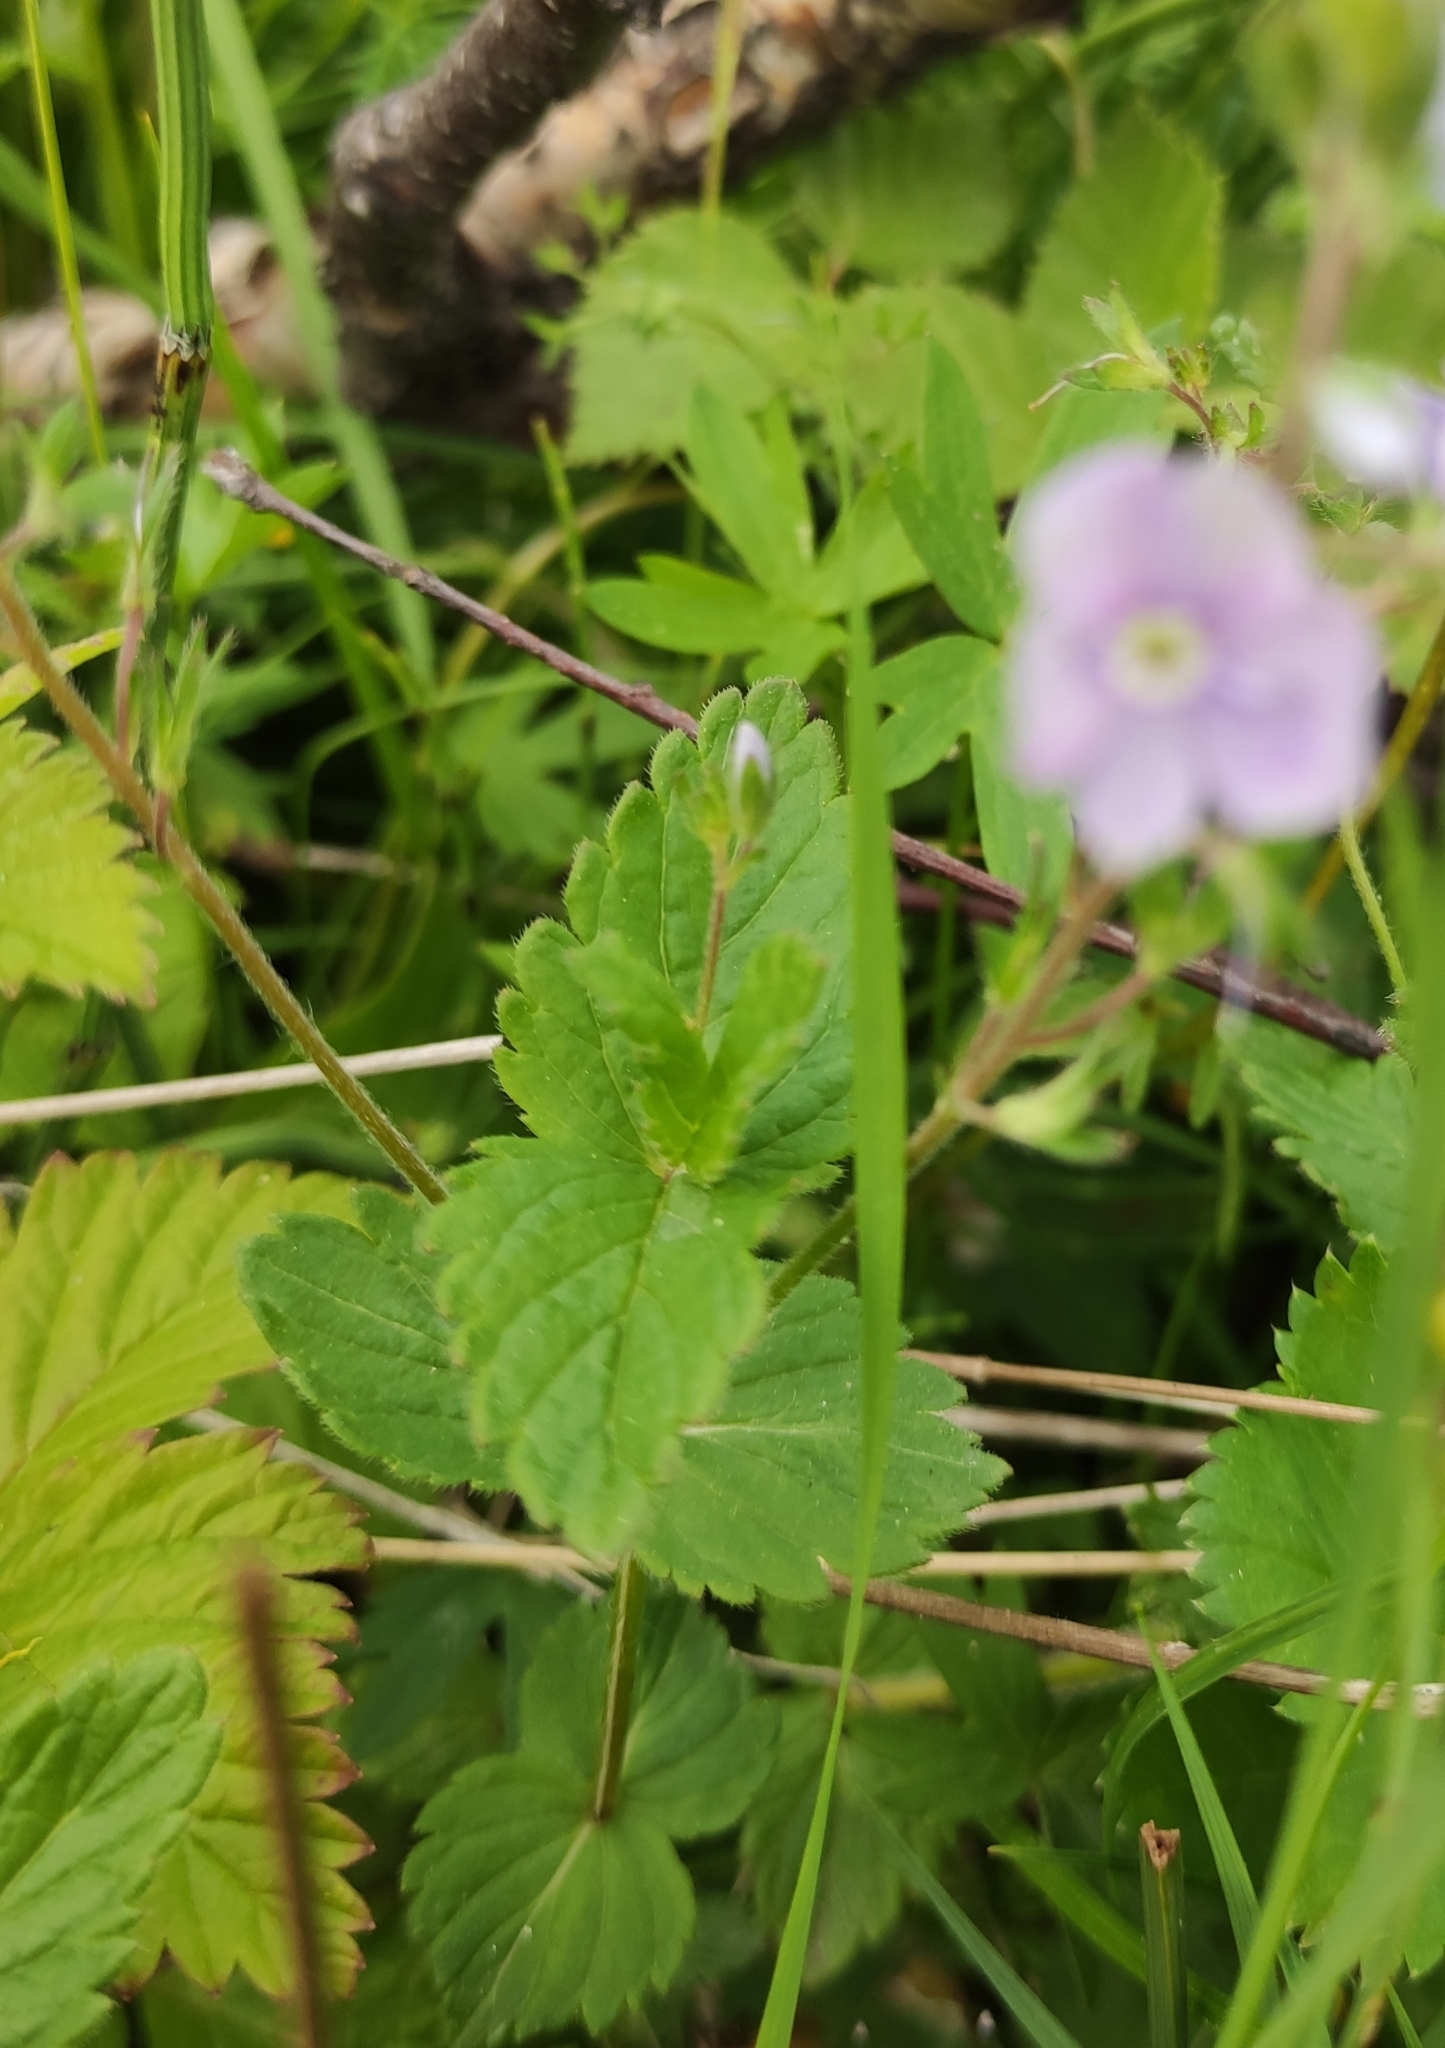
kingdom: Plantae
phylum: Tracheophyta
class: Magnoliopsida
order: Lamiales
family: Plantaginaceae
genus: Veronica
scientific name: Veronica chamaedrys
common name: Germander speedwell
